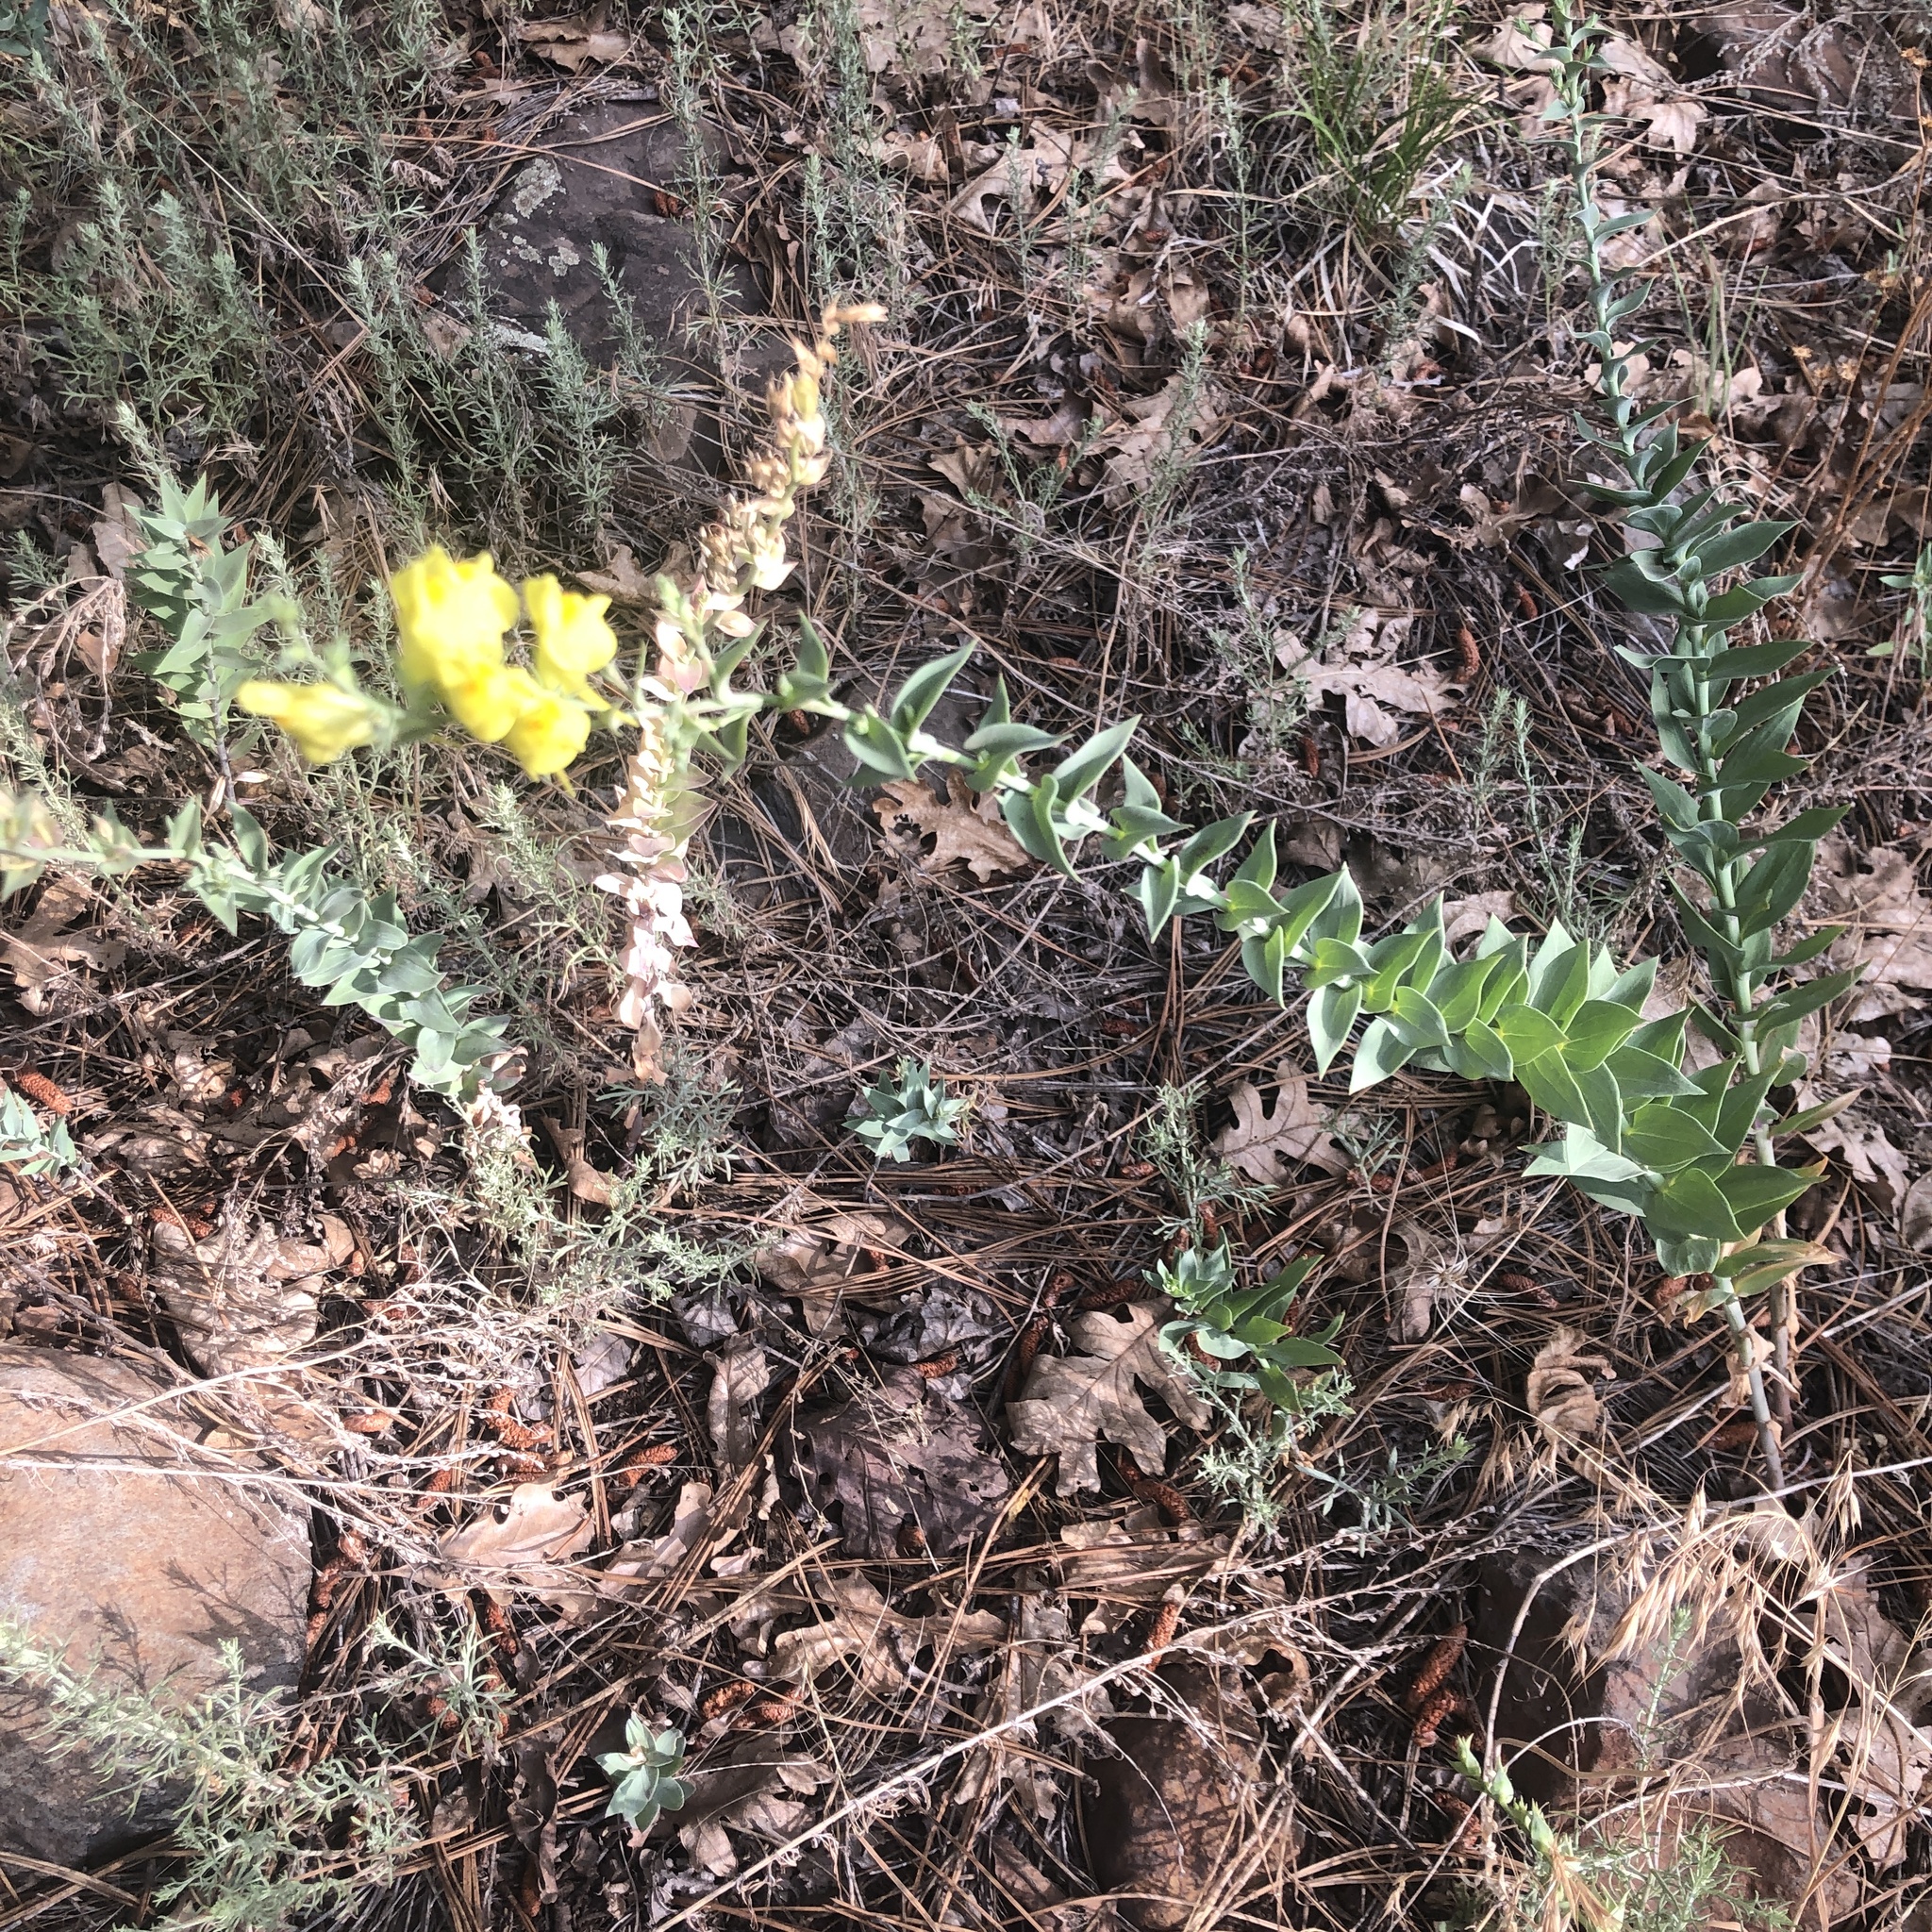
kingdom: Plantae
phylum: Tracheophyta
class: Magnoliopsida
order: Lamiales
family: Plantaginaceae
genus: Linaria
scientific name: Linaria dalmatica
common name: Dalmatian toadflax
